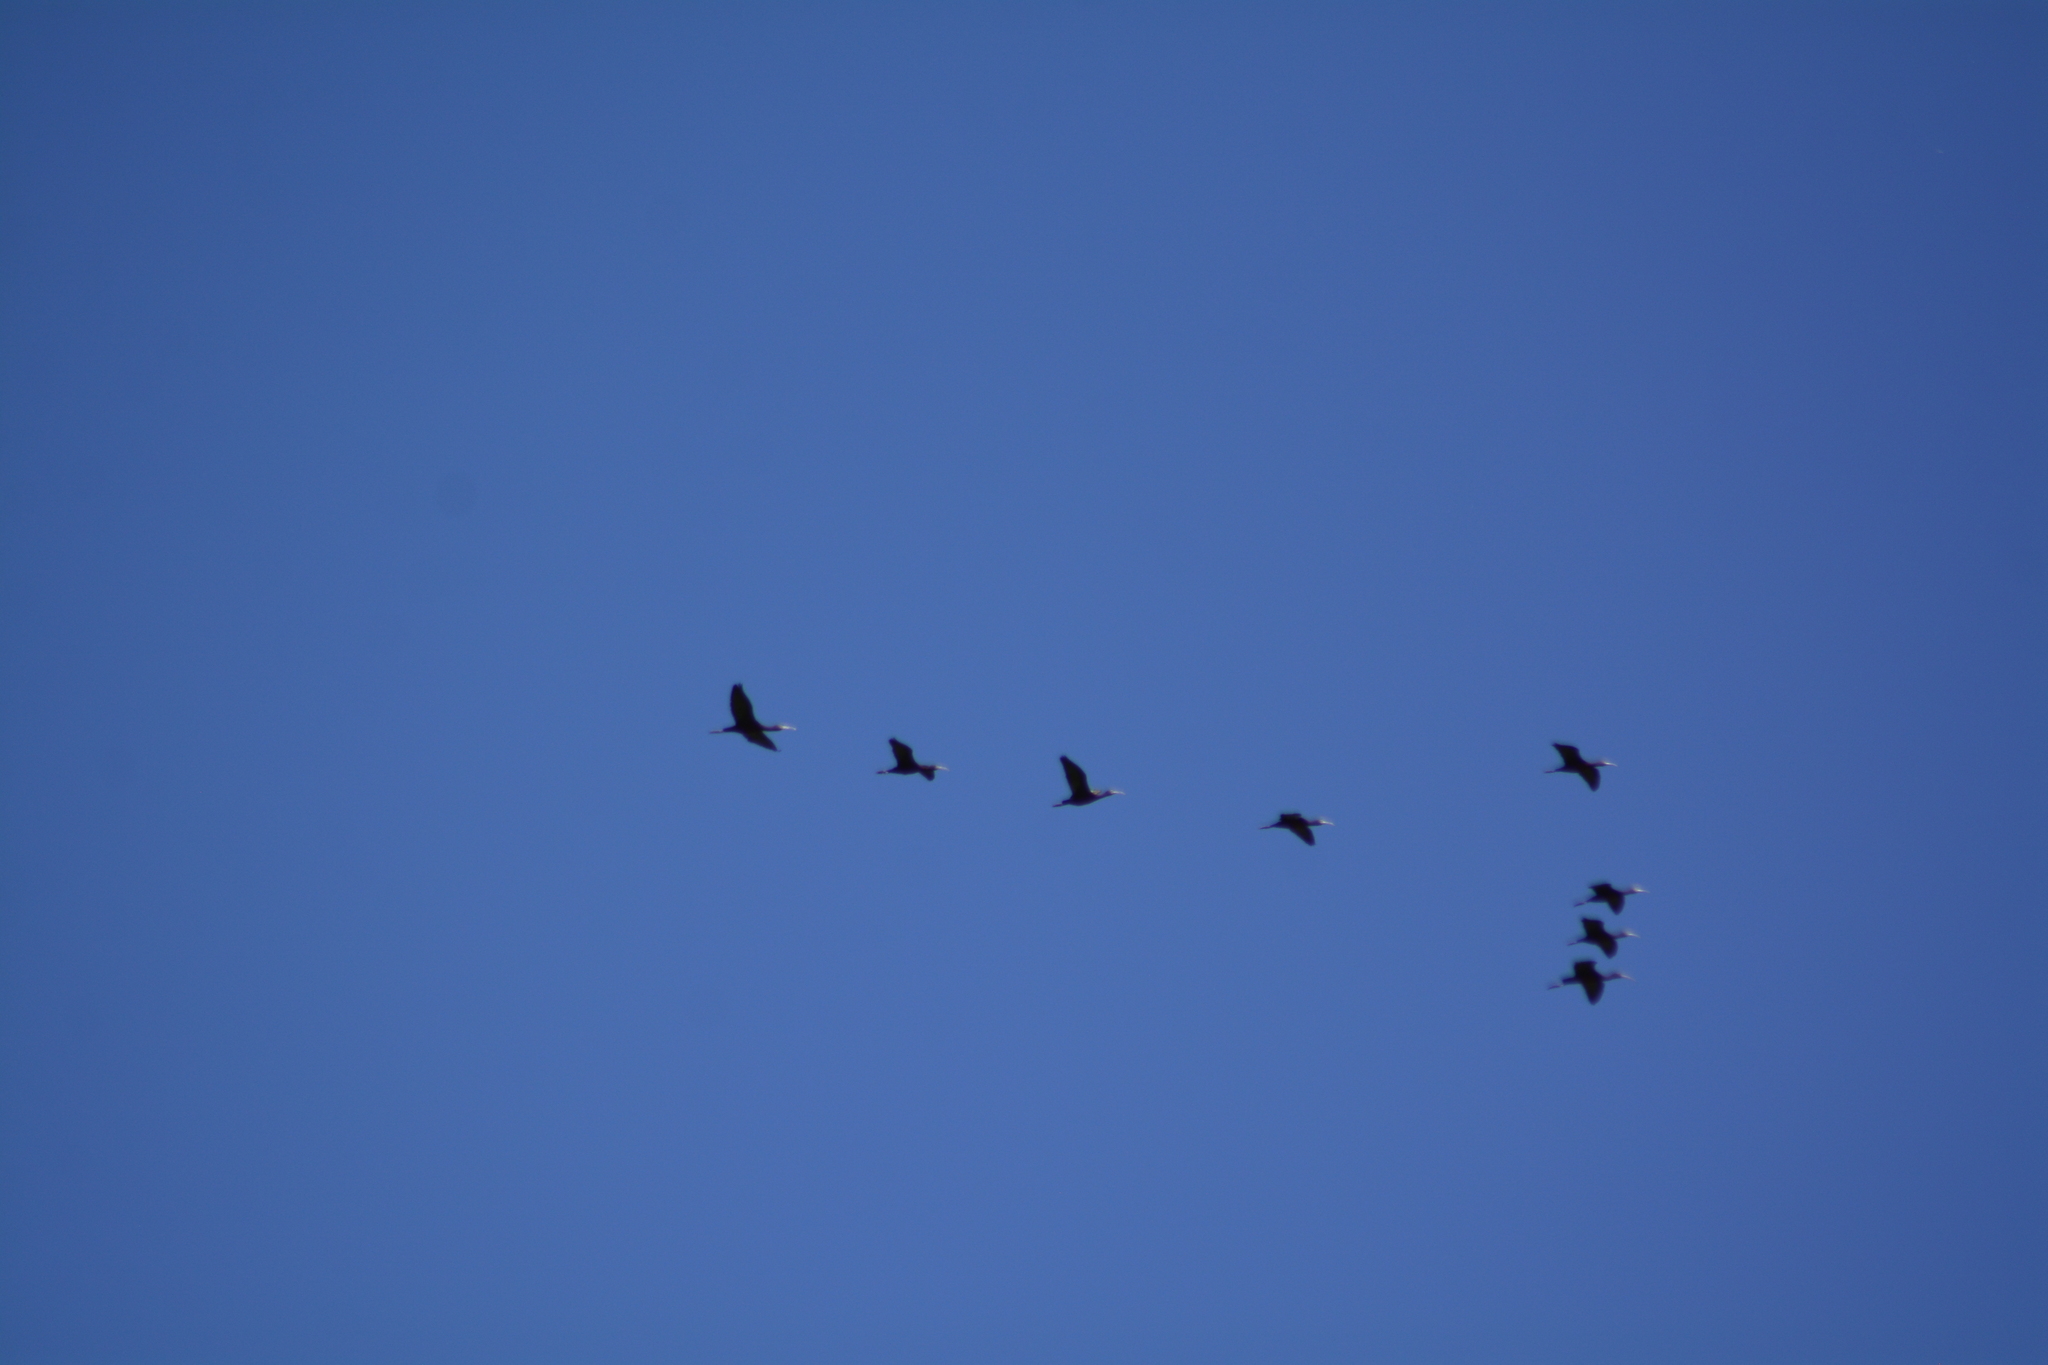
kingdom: Animalia
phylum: Chordata
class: Aves
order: Pelecaniformes
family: Threskiornithidae
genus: Plegadis
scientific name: Plegadis chihi
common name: White-faced ibis
